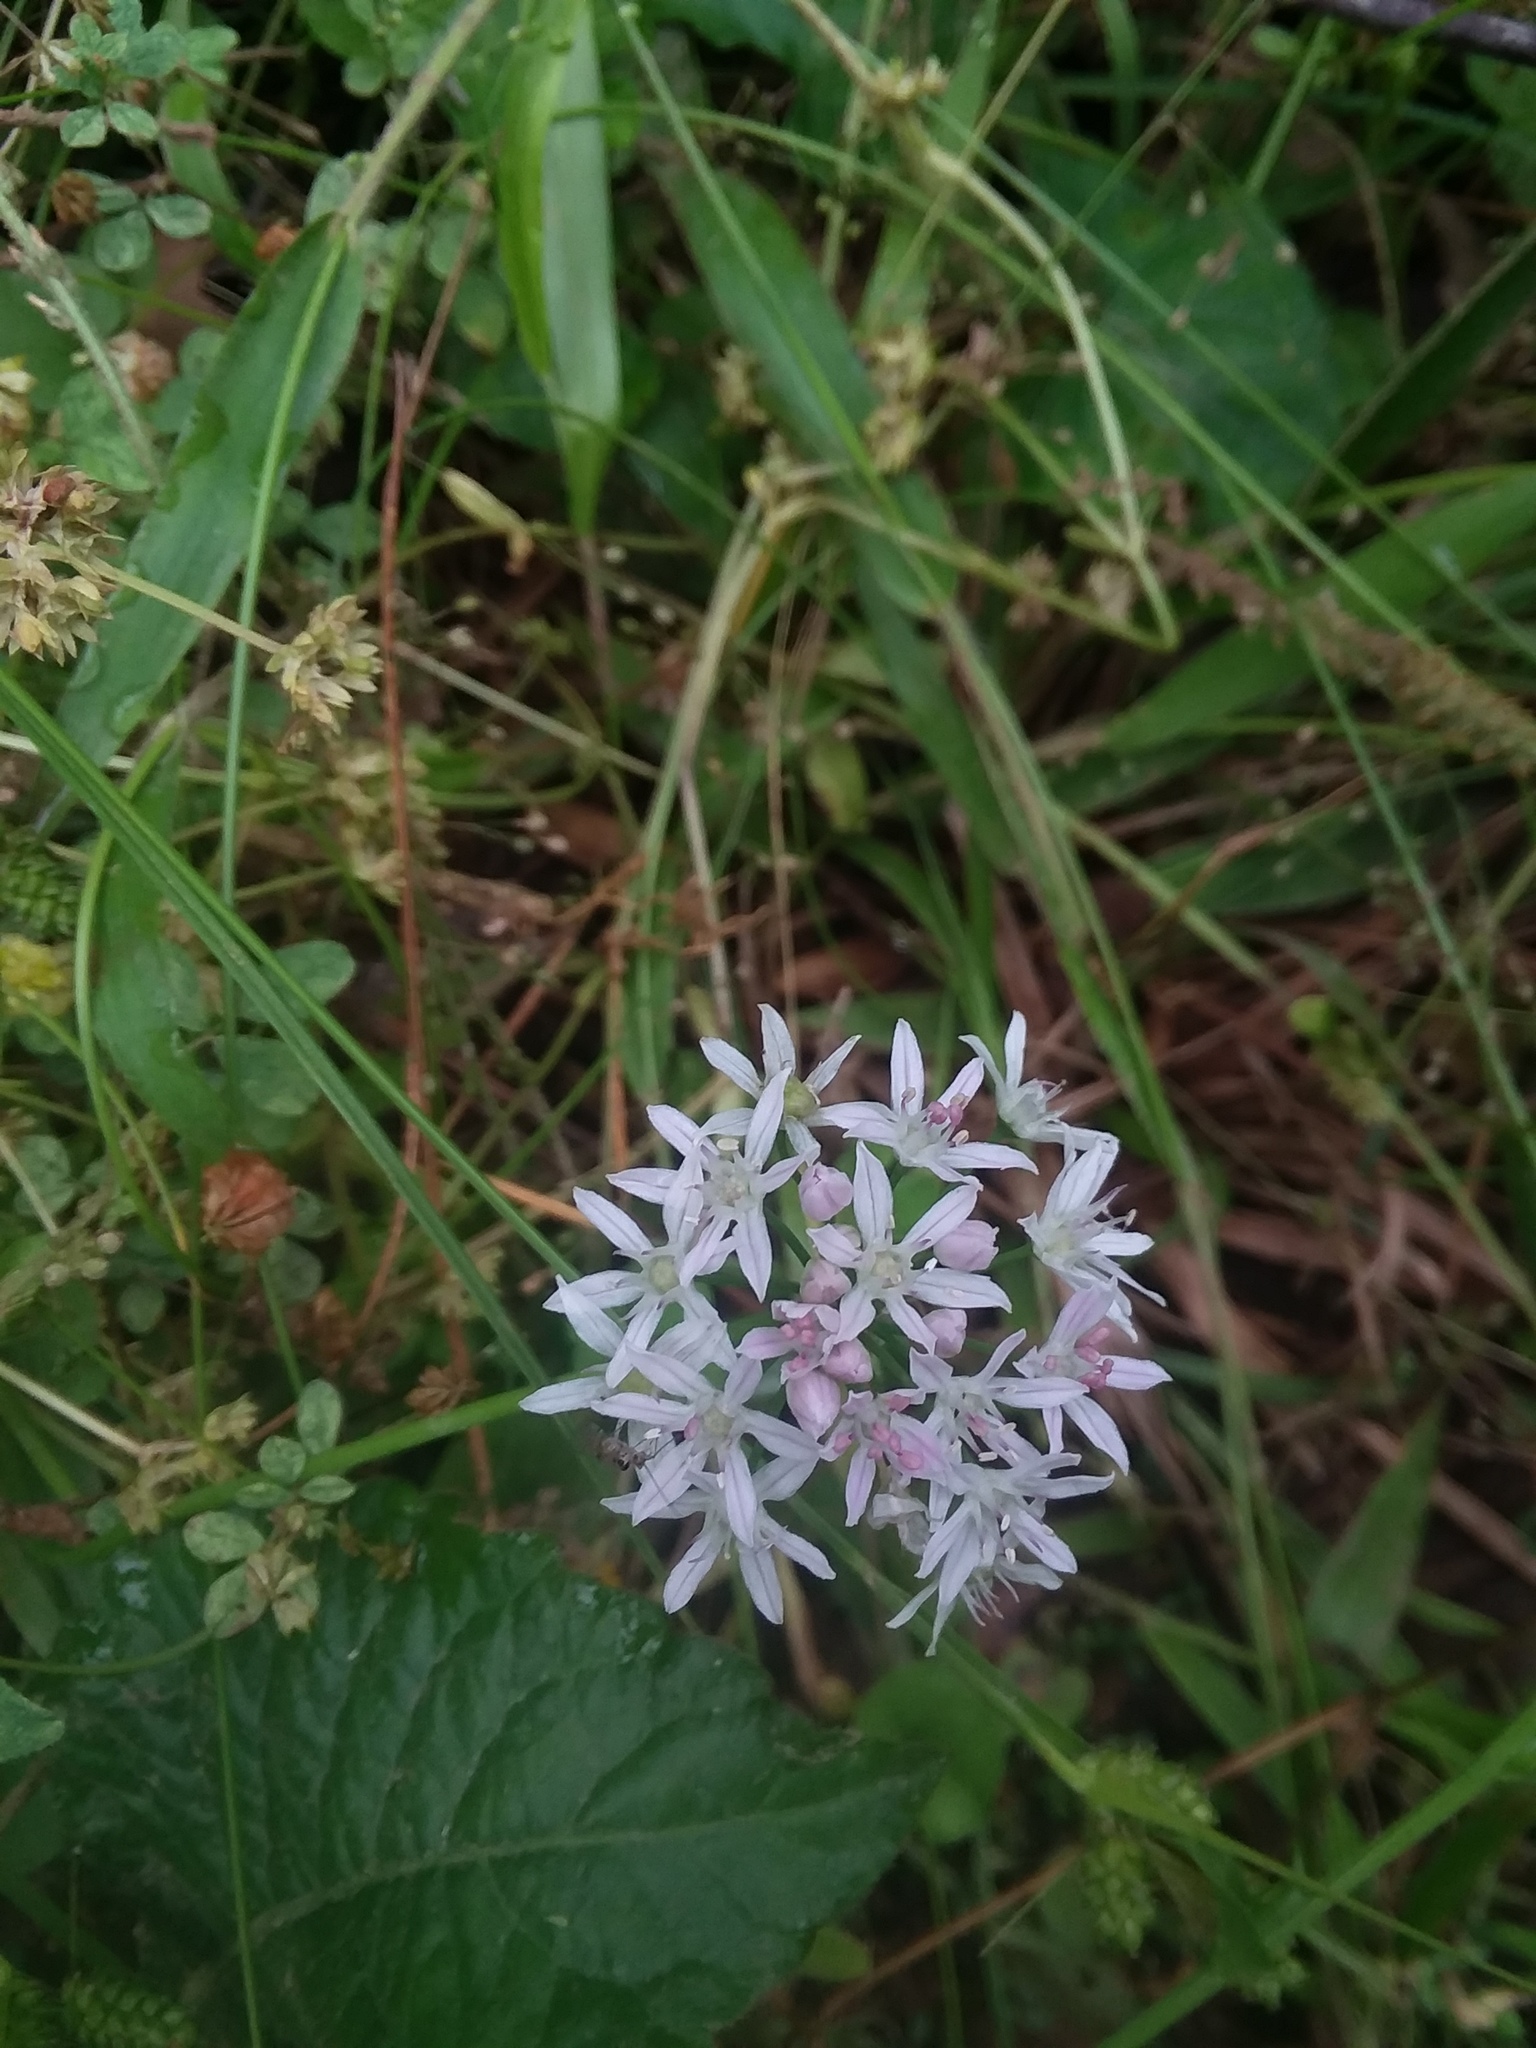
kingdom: Plantae
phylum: Tracheophyta
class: Liliopsida
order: Asparagales
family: Amaryllidaceae
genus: Allium
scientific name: Allium canadense
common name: Meadow garlic
